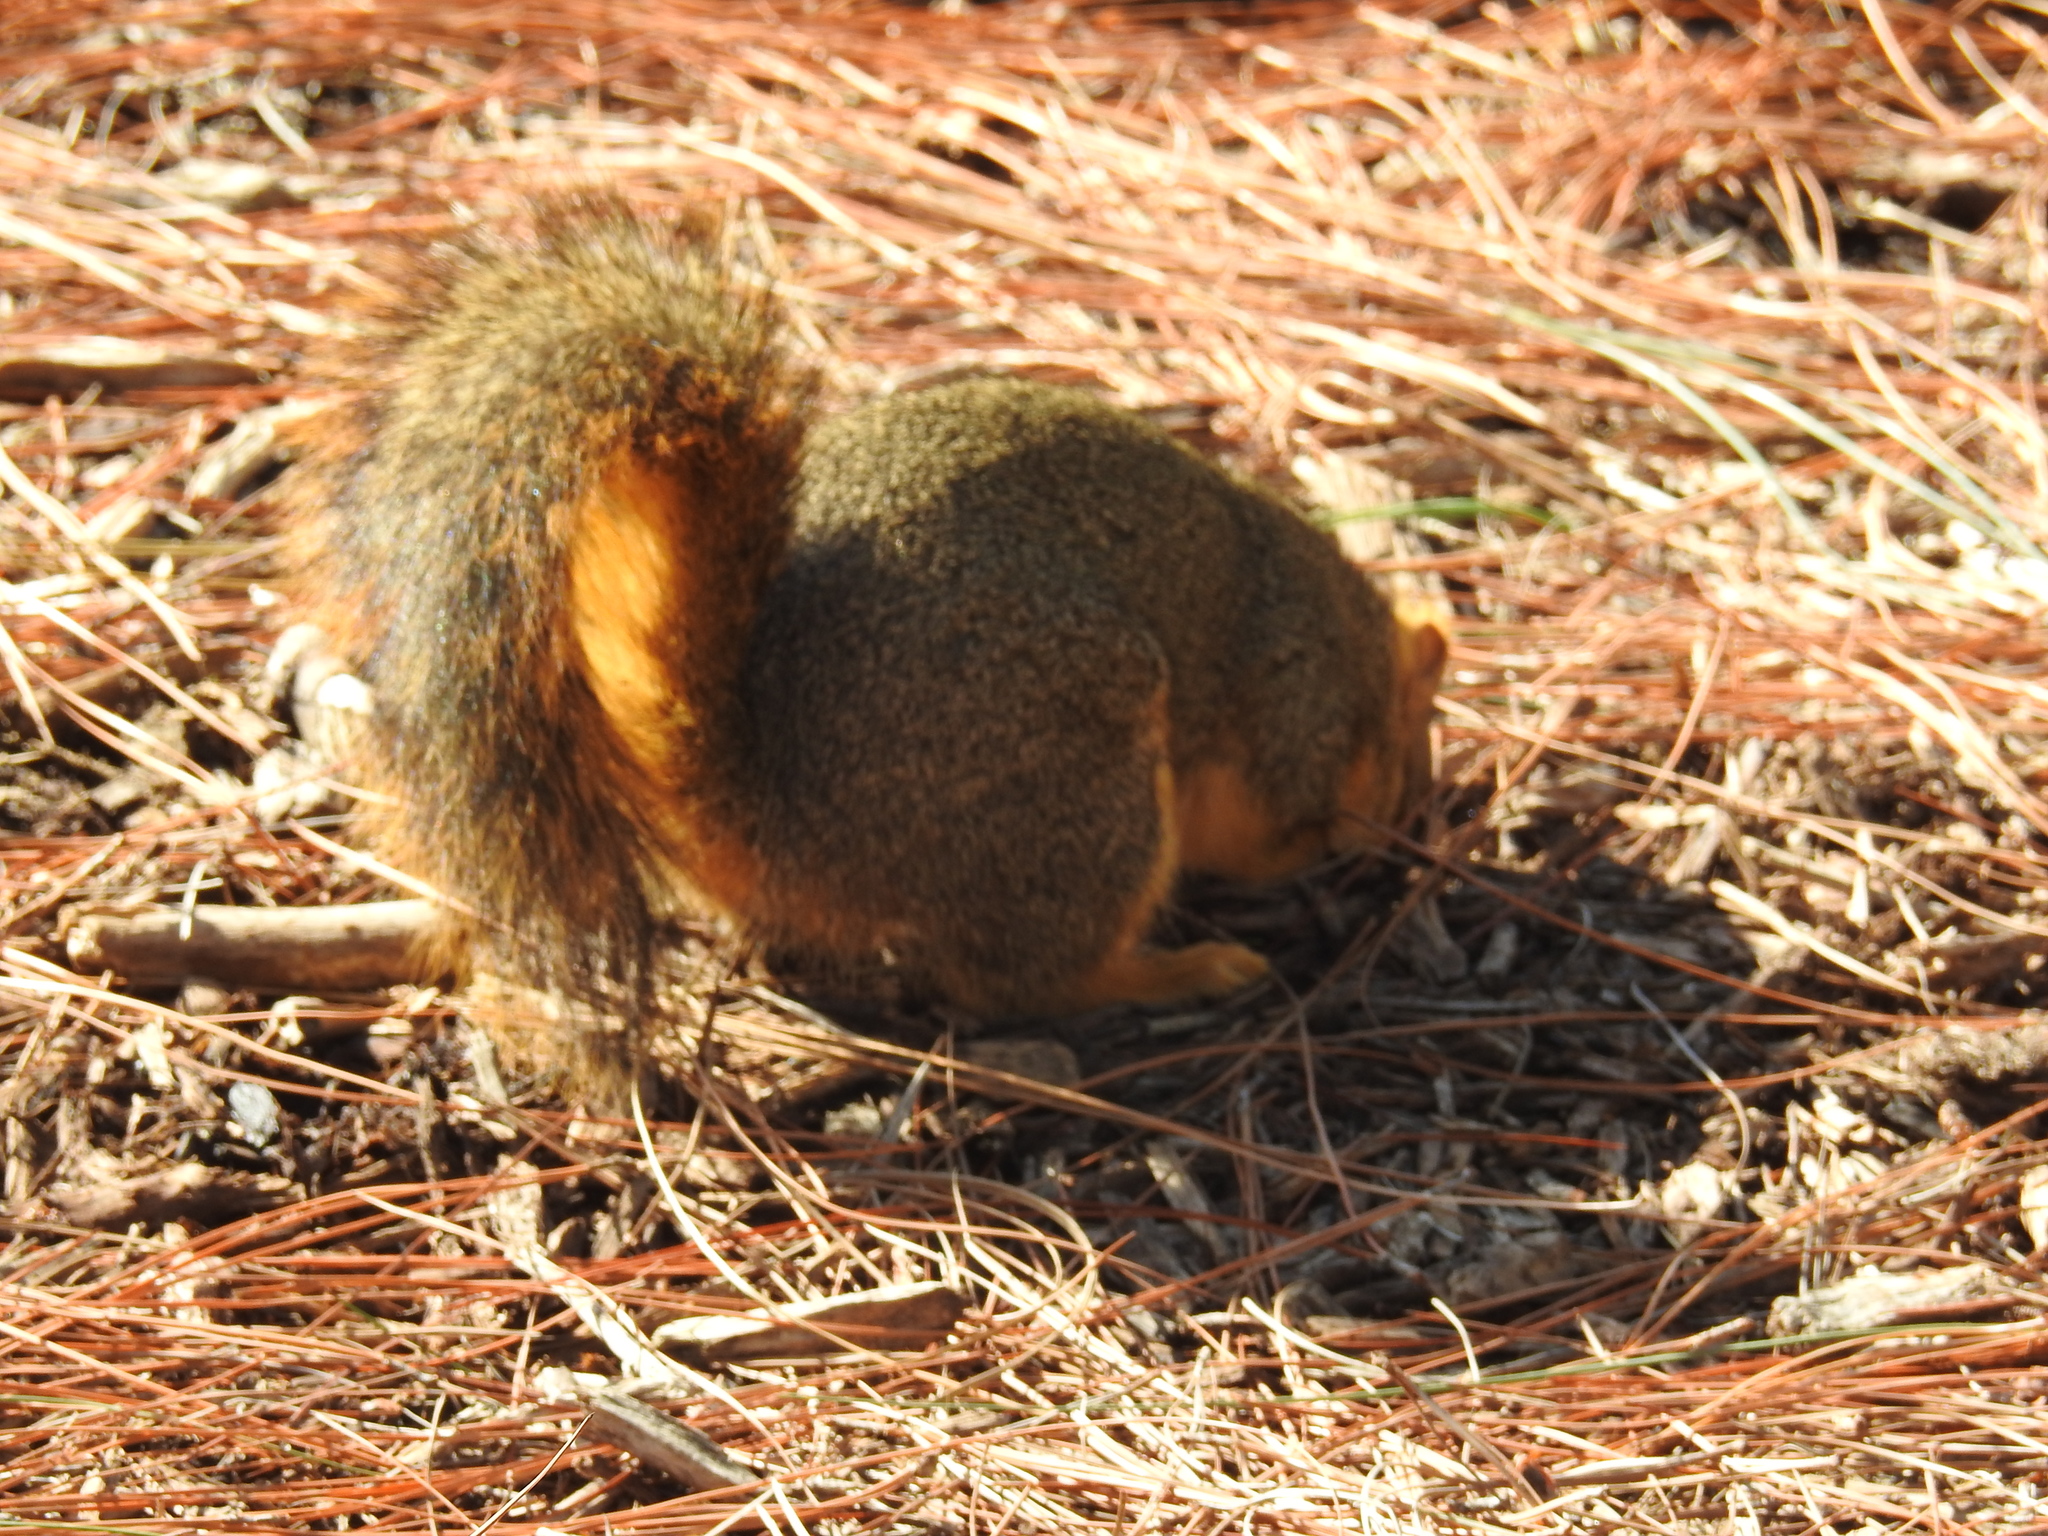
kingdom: Animalia
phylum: Chordata
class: Mammalia
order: Rodentia
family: Sciuridae
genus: Sciurus
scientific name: Sciurus niger
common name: Fox squirrel
